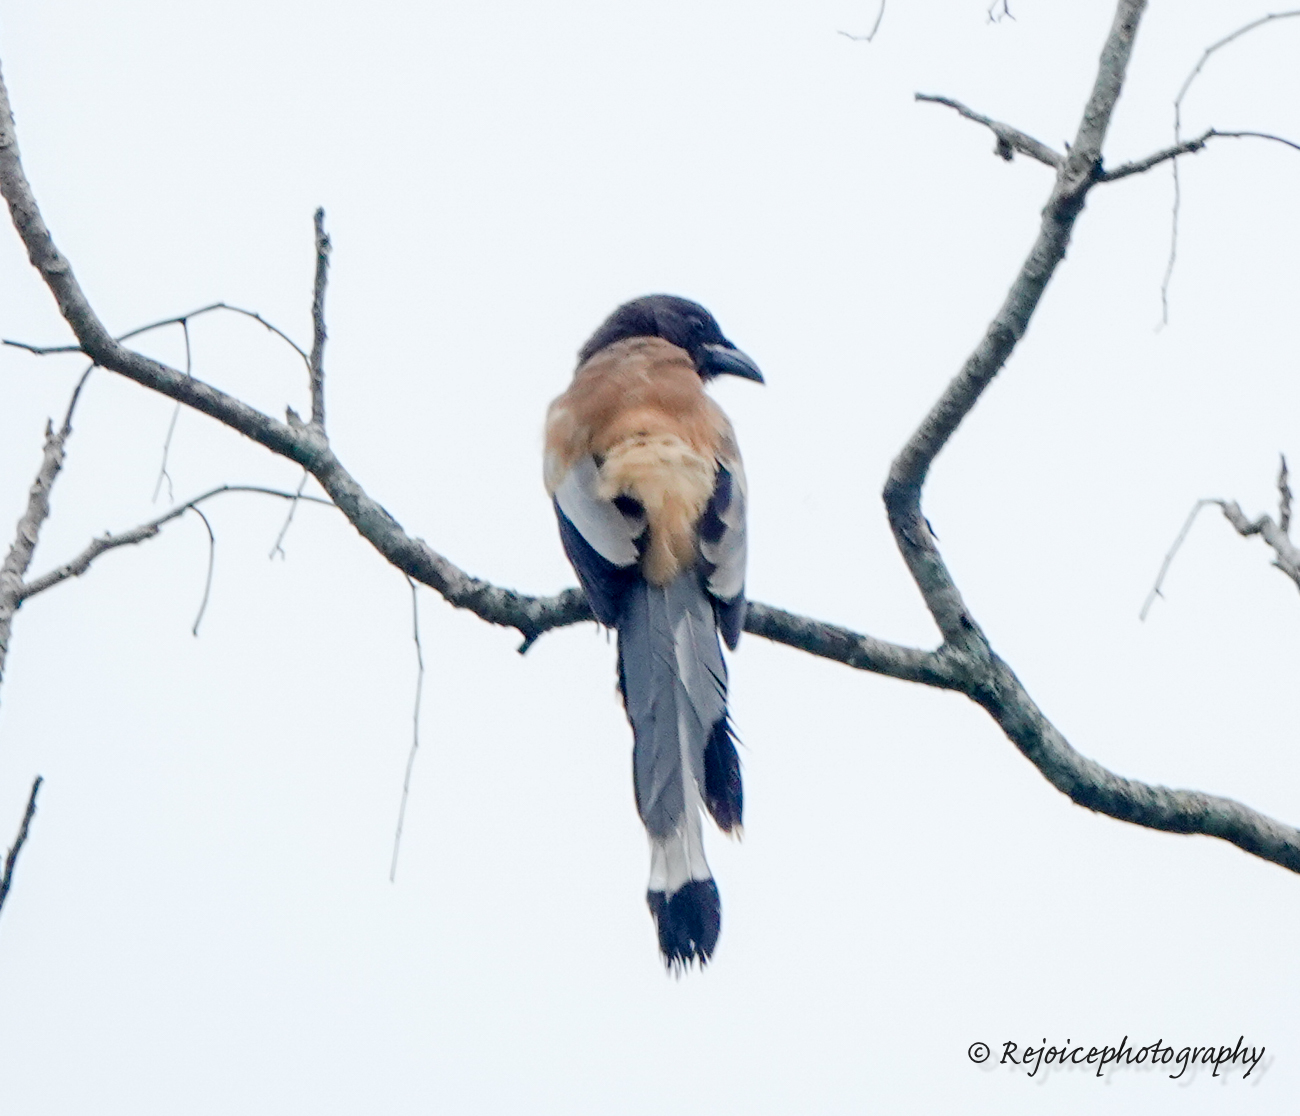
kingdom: Animalia
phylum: Chordata
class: Aves
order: Passeriformes
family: Corvidae
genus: Dendrocitta
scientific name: Dendrocitta vagabunda
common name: Rufous treepie
